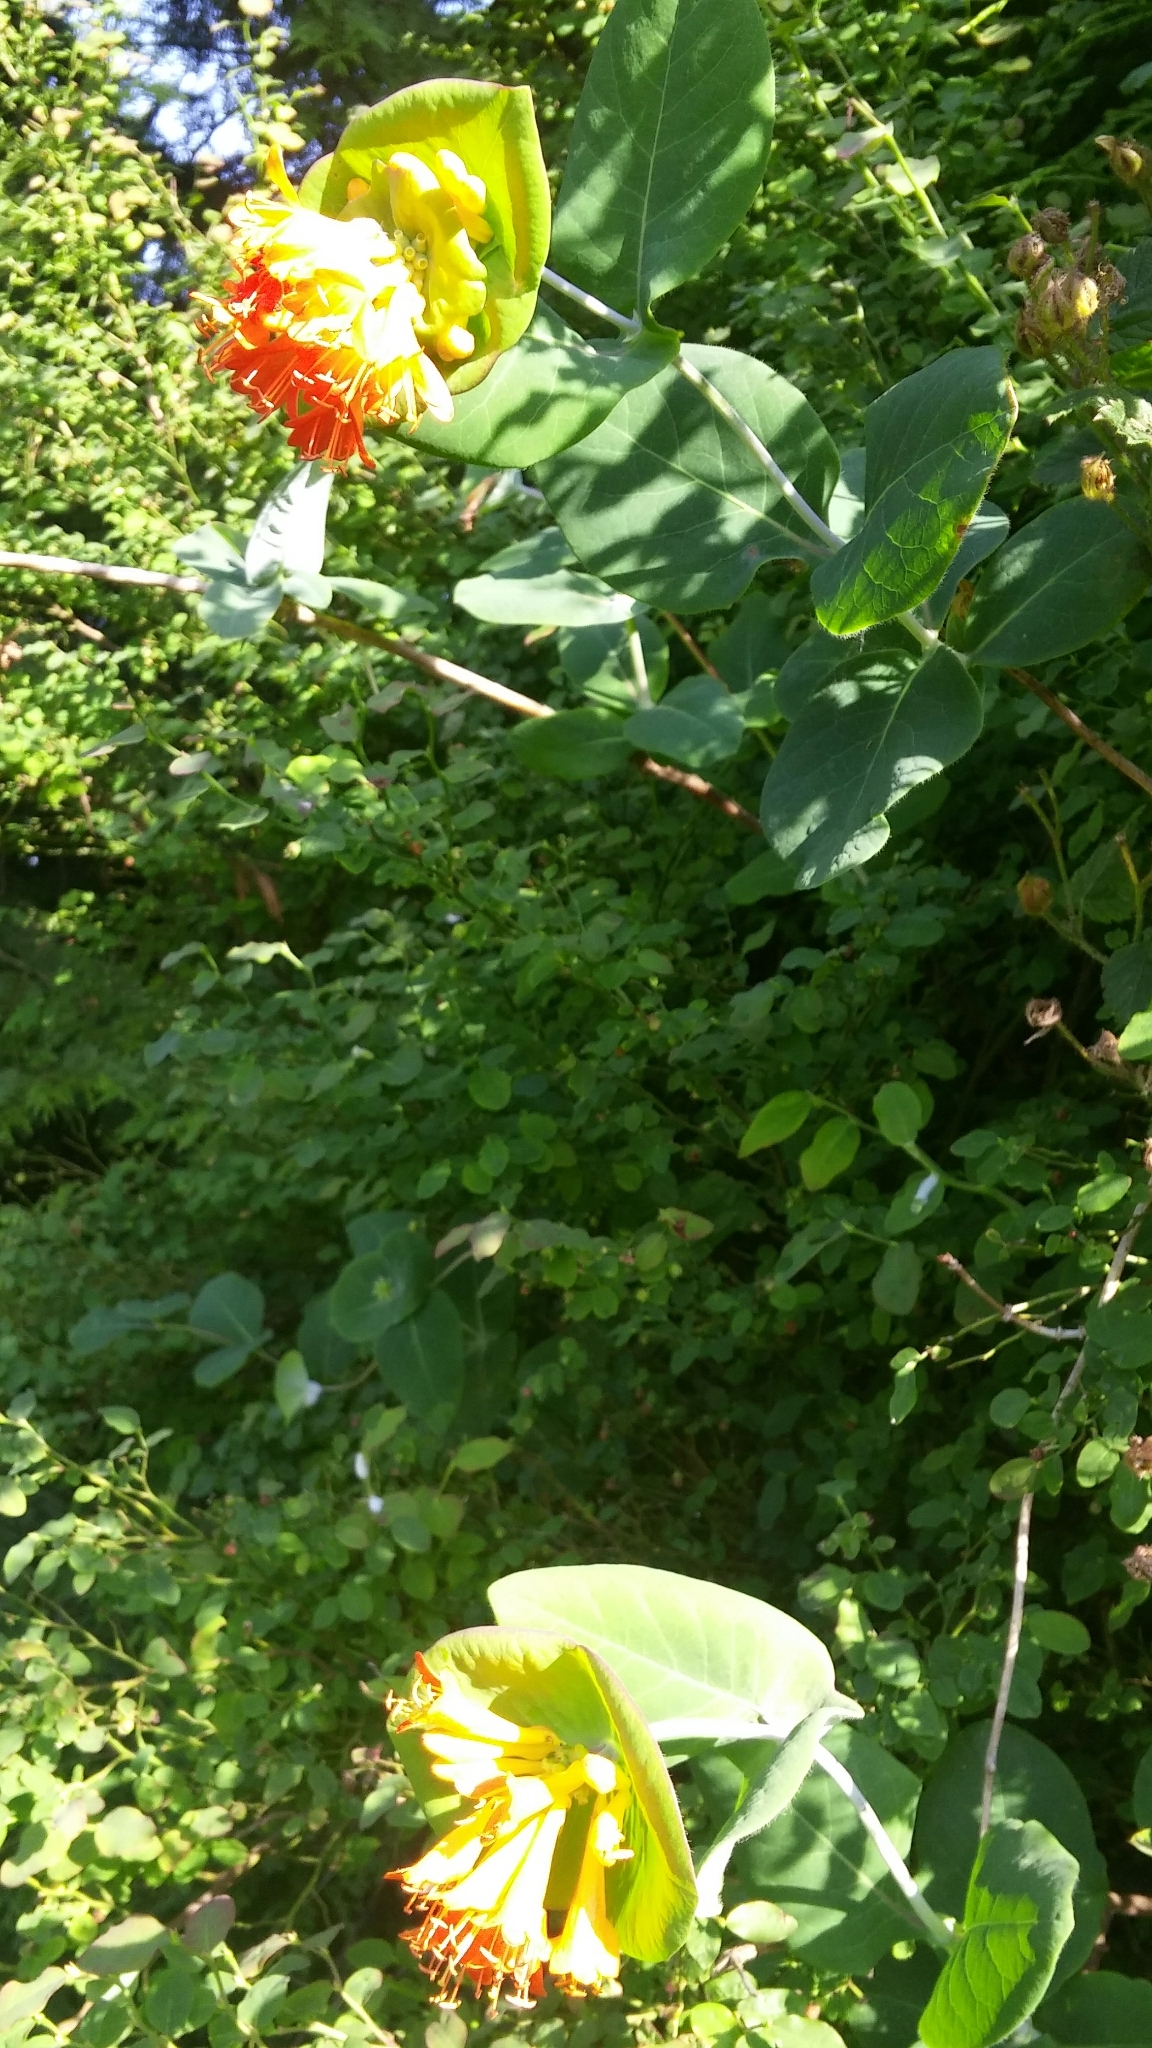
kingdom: Plantae
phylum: Tracheophyta
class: Magnoliopsida
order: Dipsacales
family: Caprifoliaceae
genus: Lonicera
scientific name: Lonicera ciliosa
